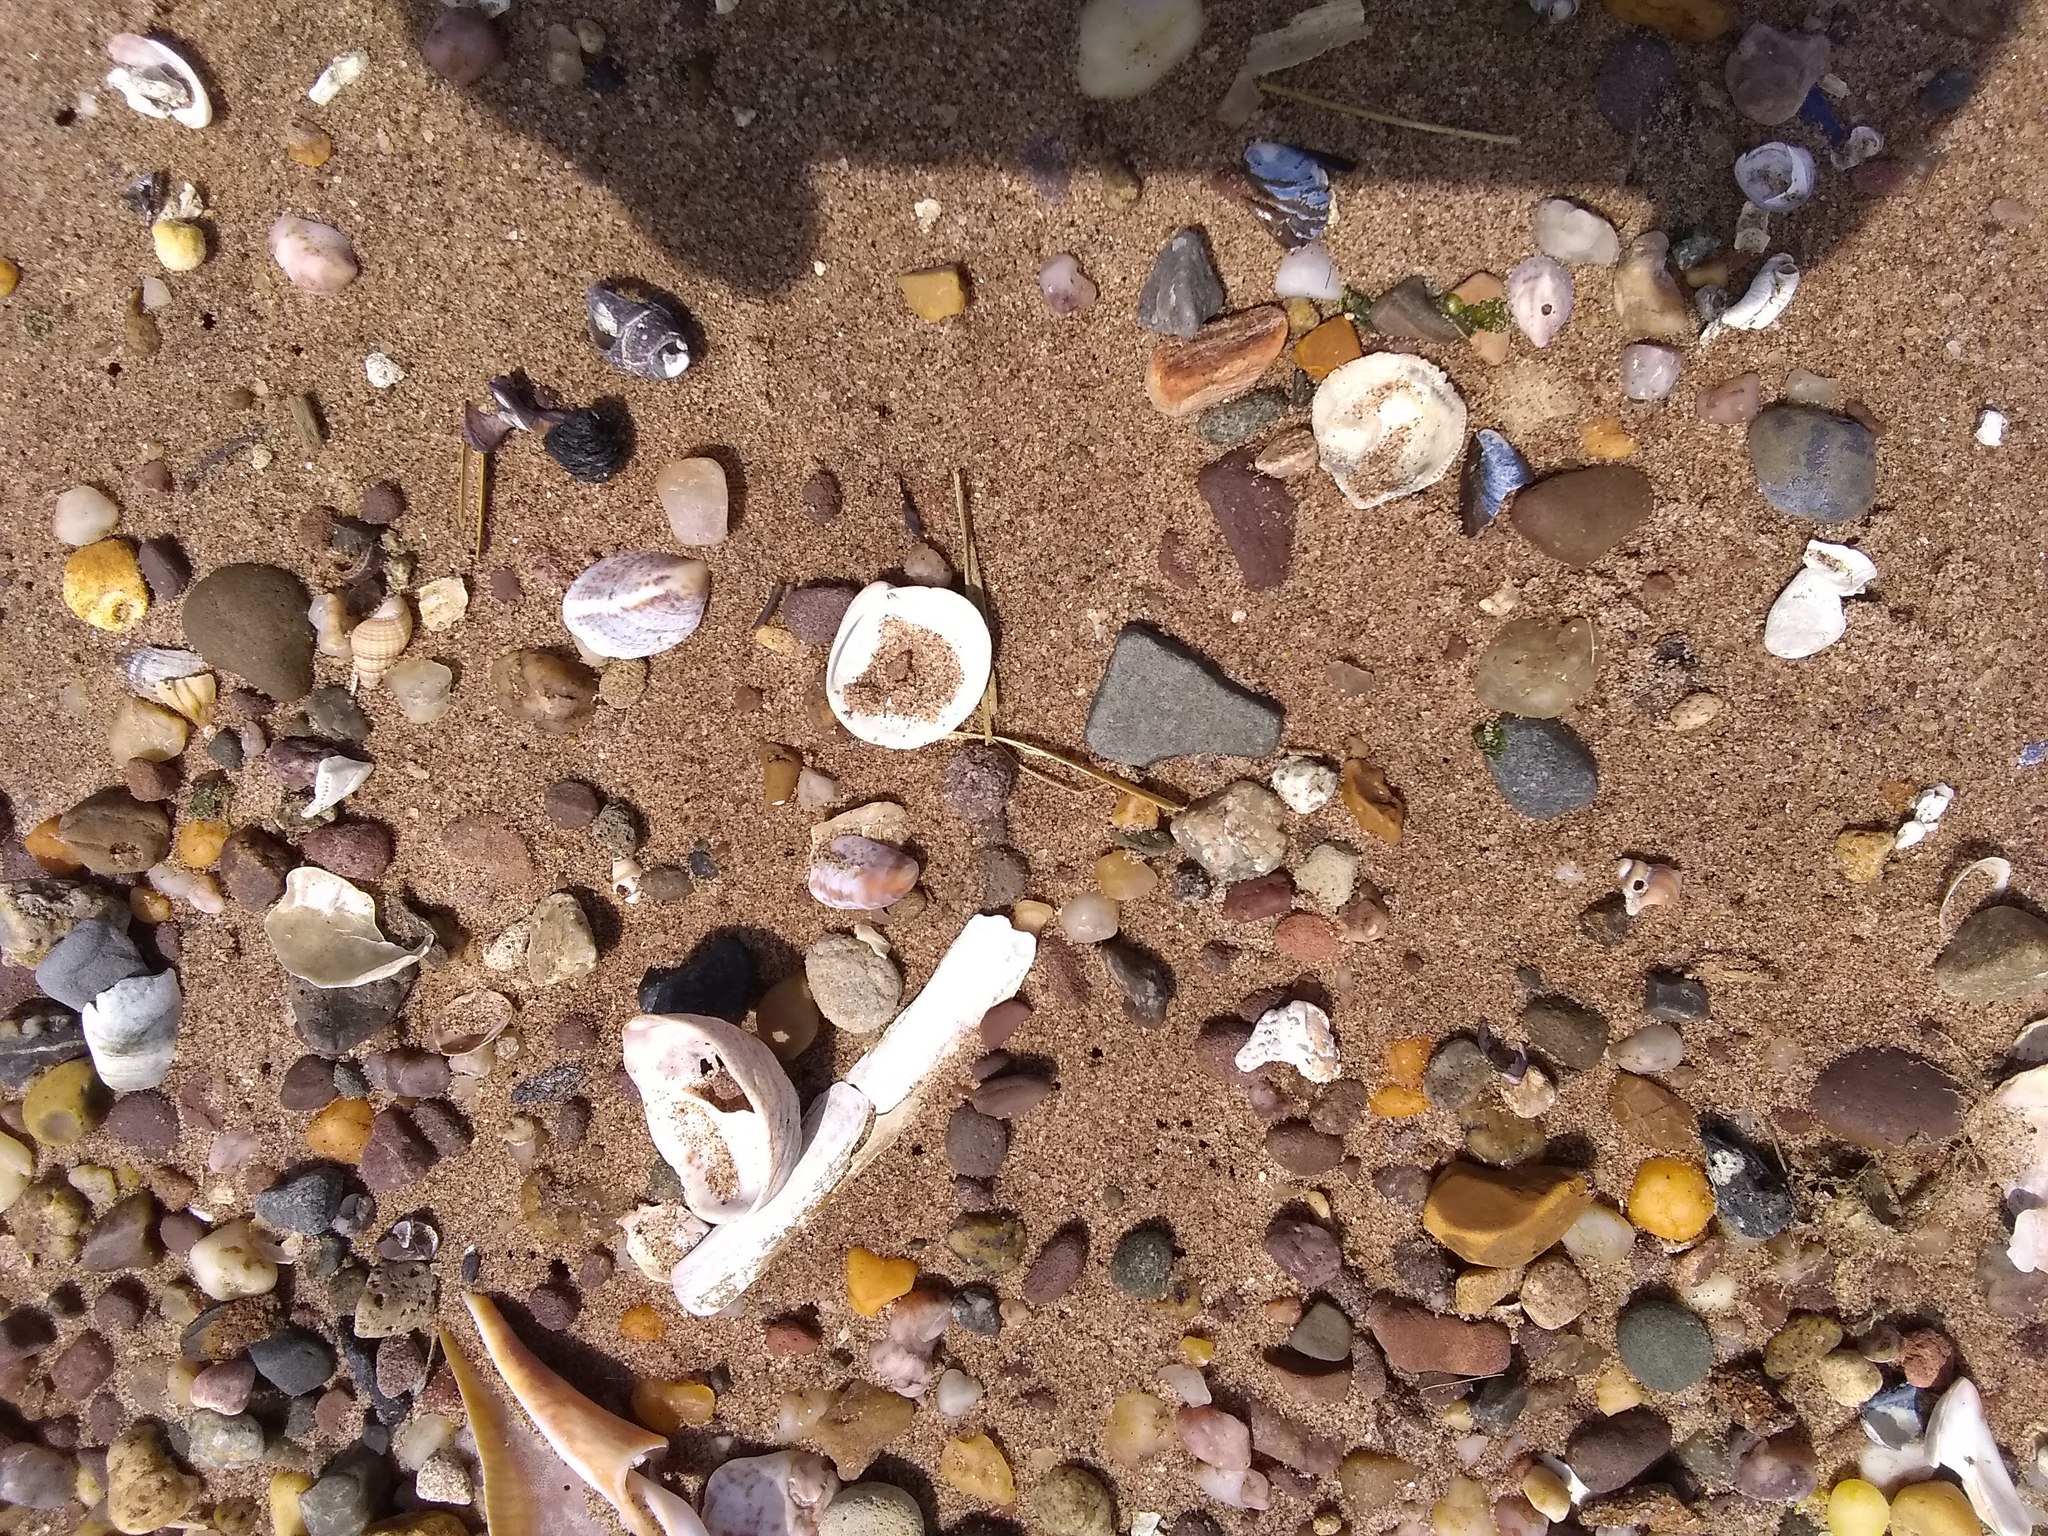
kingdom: Animalia
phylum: Mollusca
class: Bivalvia
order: Adapedonta
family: Pharidae
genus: Ensis
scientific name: Ensis leei
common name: American jack knife clam
